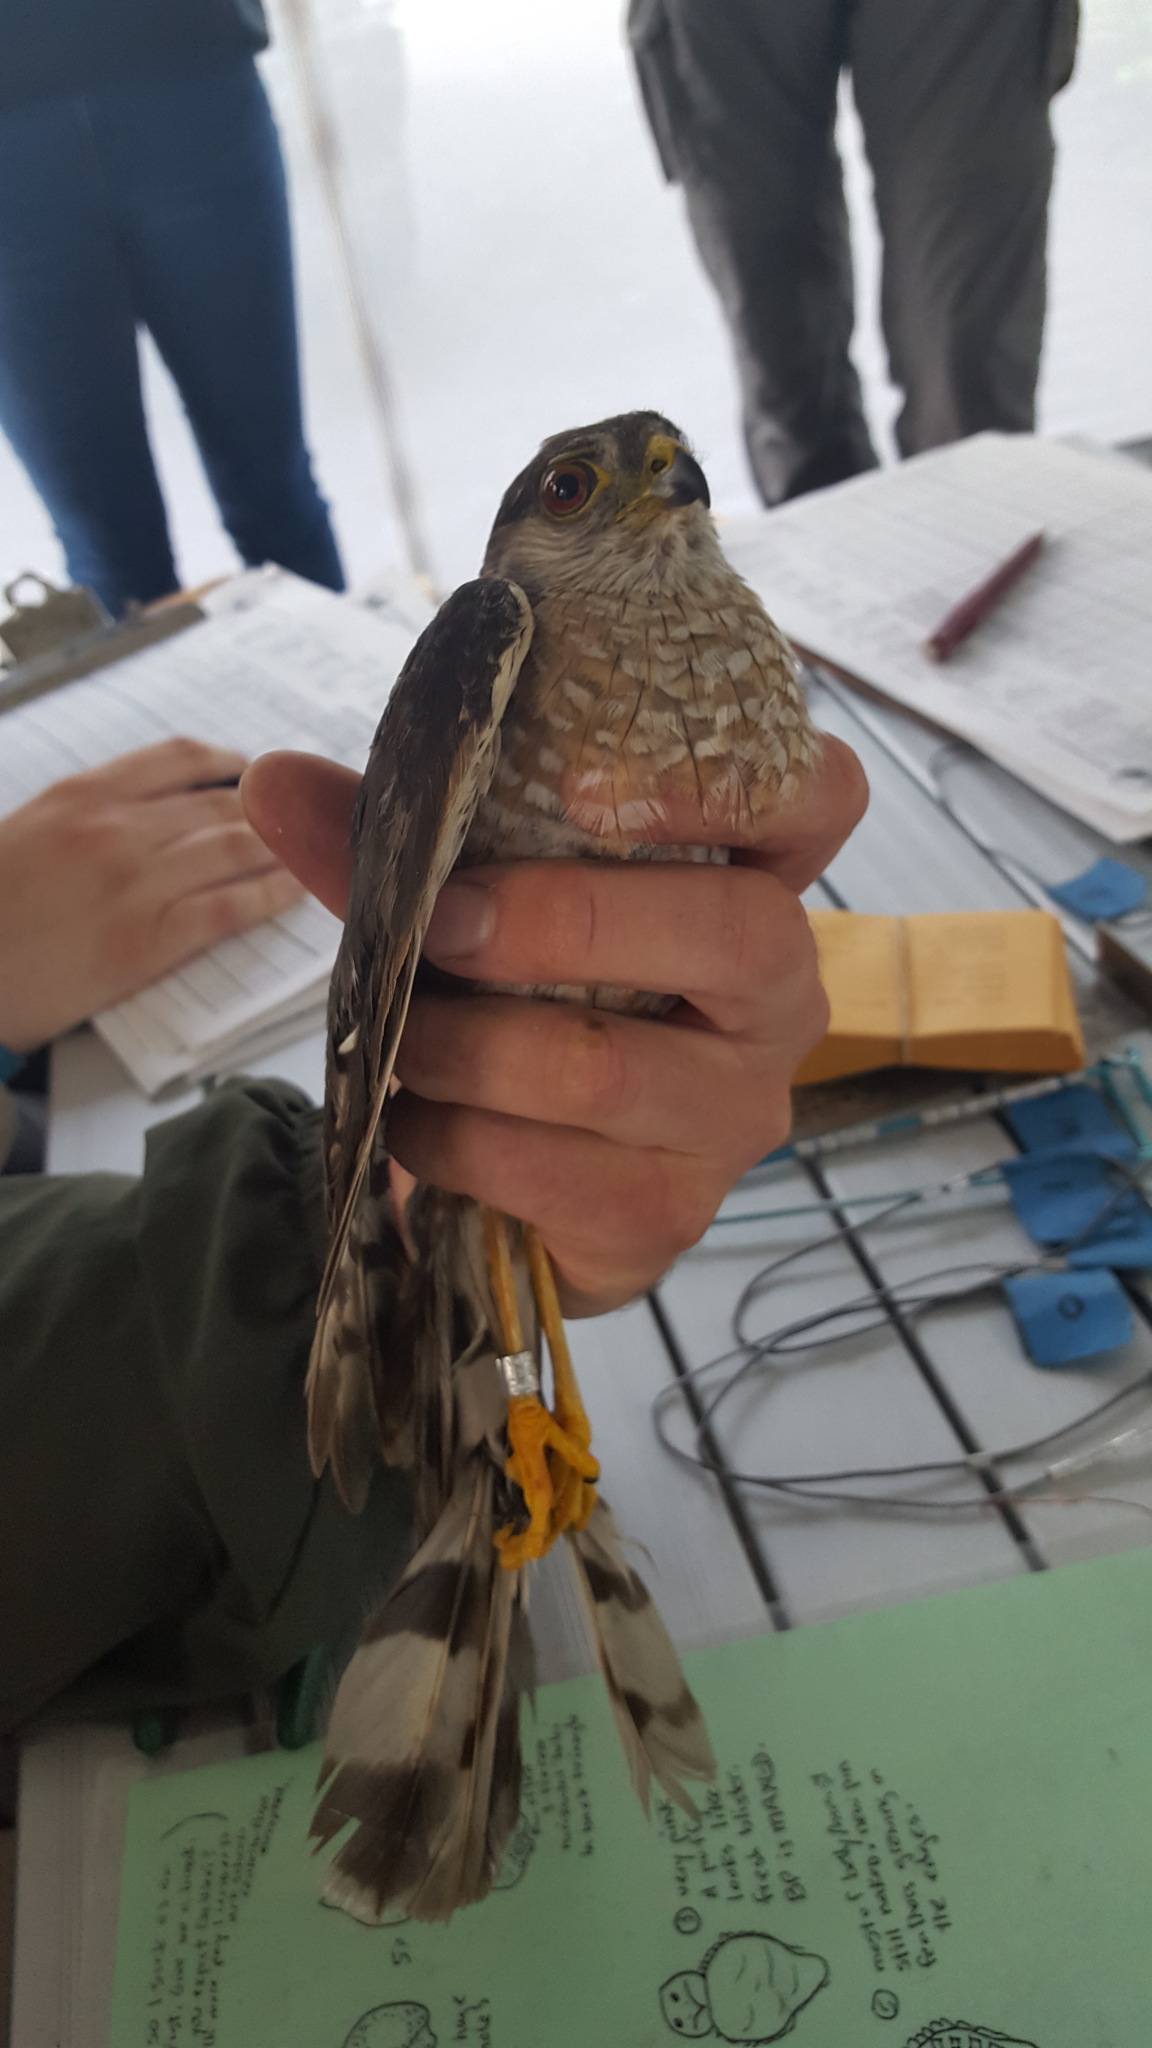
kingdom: Animalia
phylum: Chordata
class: Aves
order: Accipitriformes
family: Accipitridae
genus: Accipiter
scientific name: Accipiter striatus
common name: Sharp-shinned hawk
